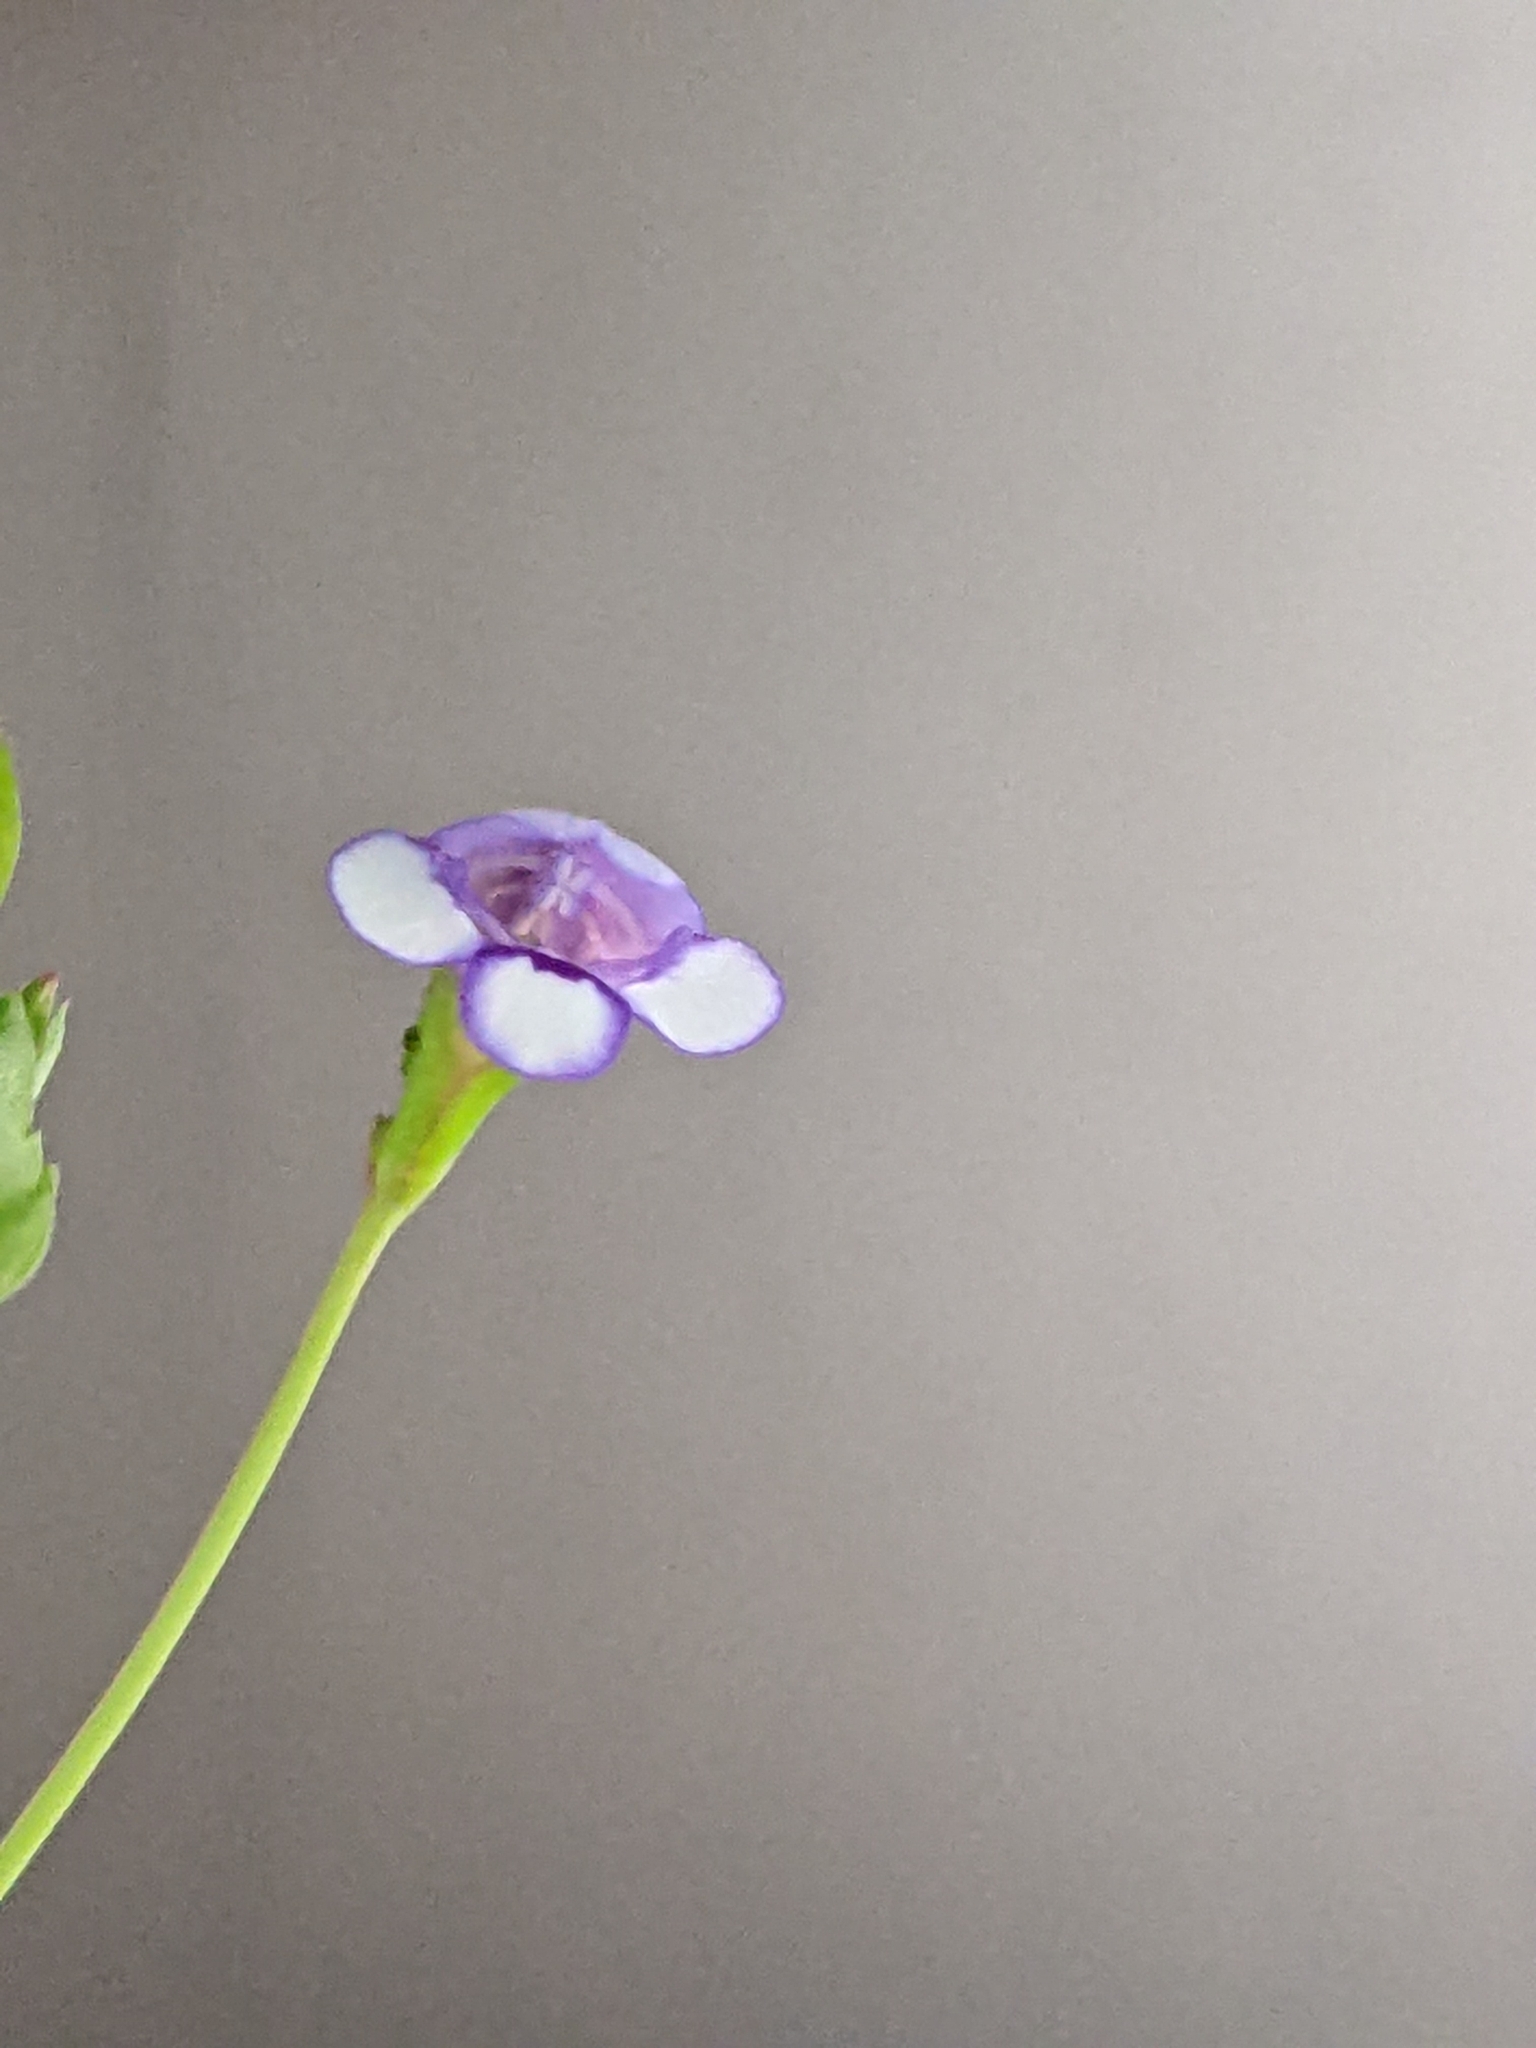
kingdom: Plantae
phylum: Tracheophyta
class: Magnoliopsida
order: Lamiales
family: Linderniaceae
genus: Torenia
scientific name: Torenia crustacea
